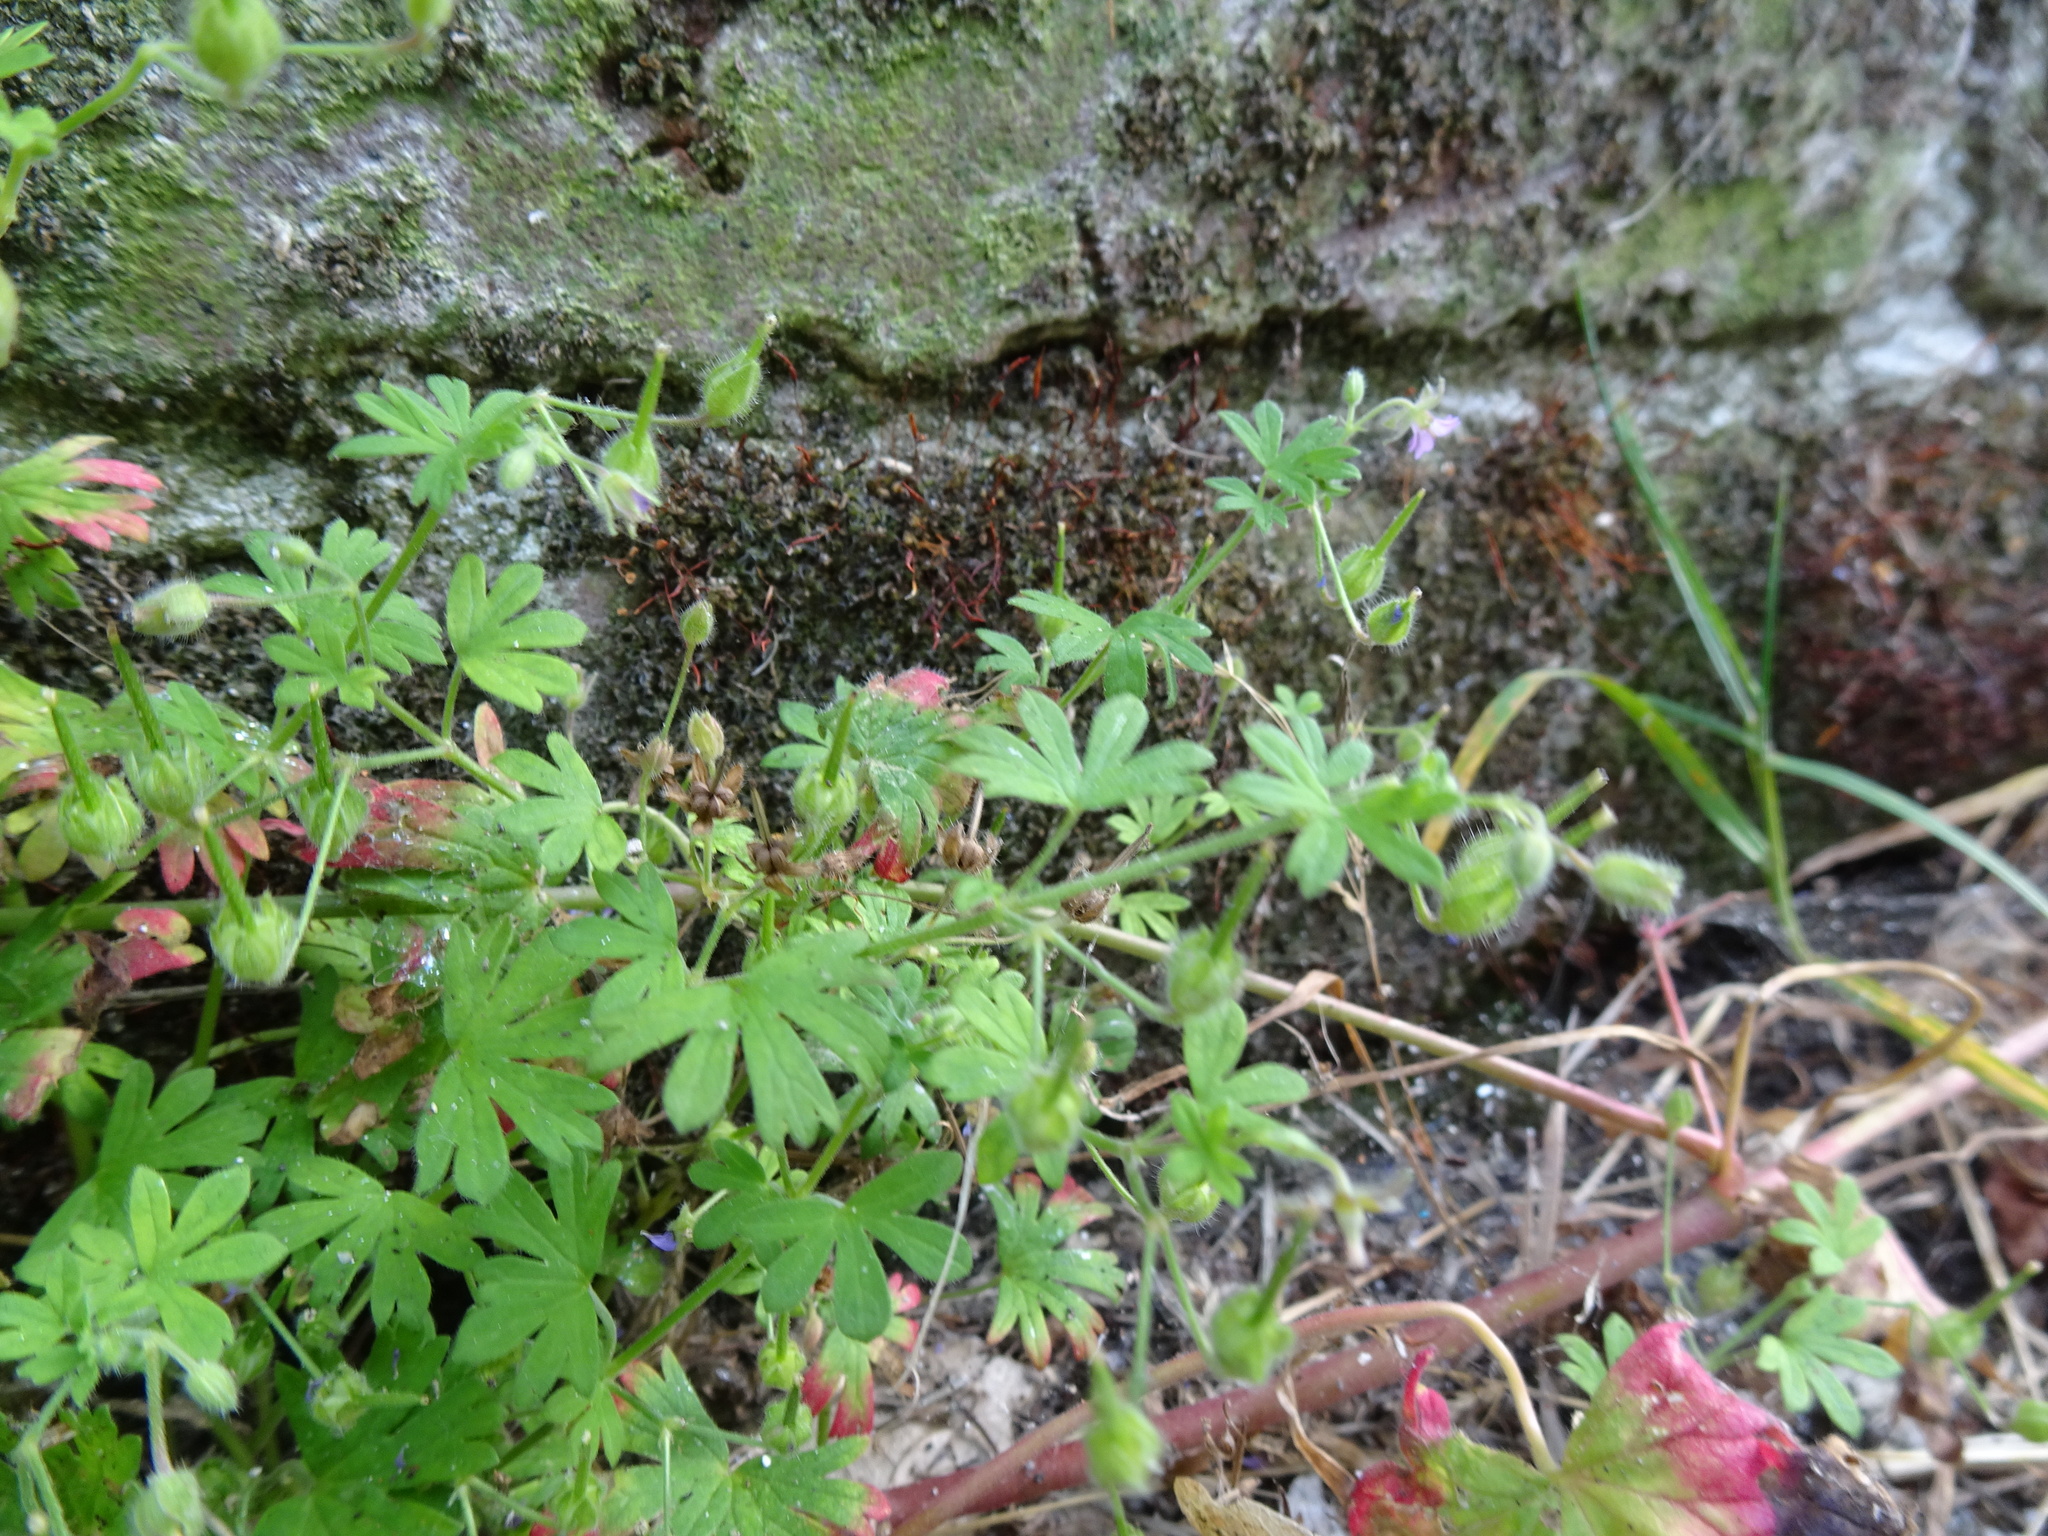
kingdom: Plantae
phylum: Tracheophyta
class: Magnoliopsida
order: Geraniales
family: Geraniaceae
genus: Geranium
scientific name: Geranium pusillum
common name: Small geranium
